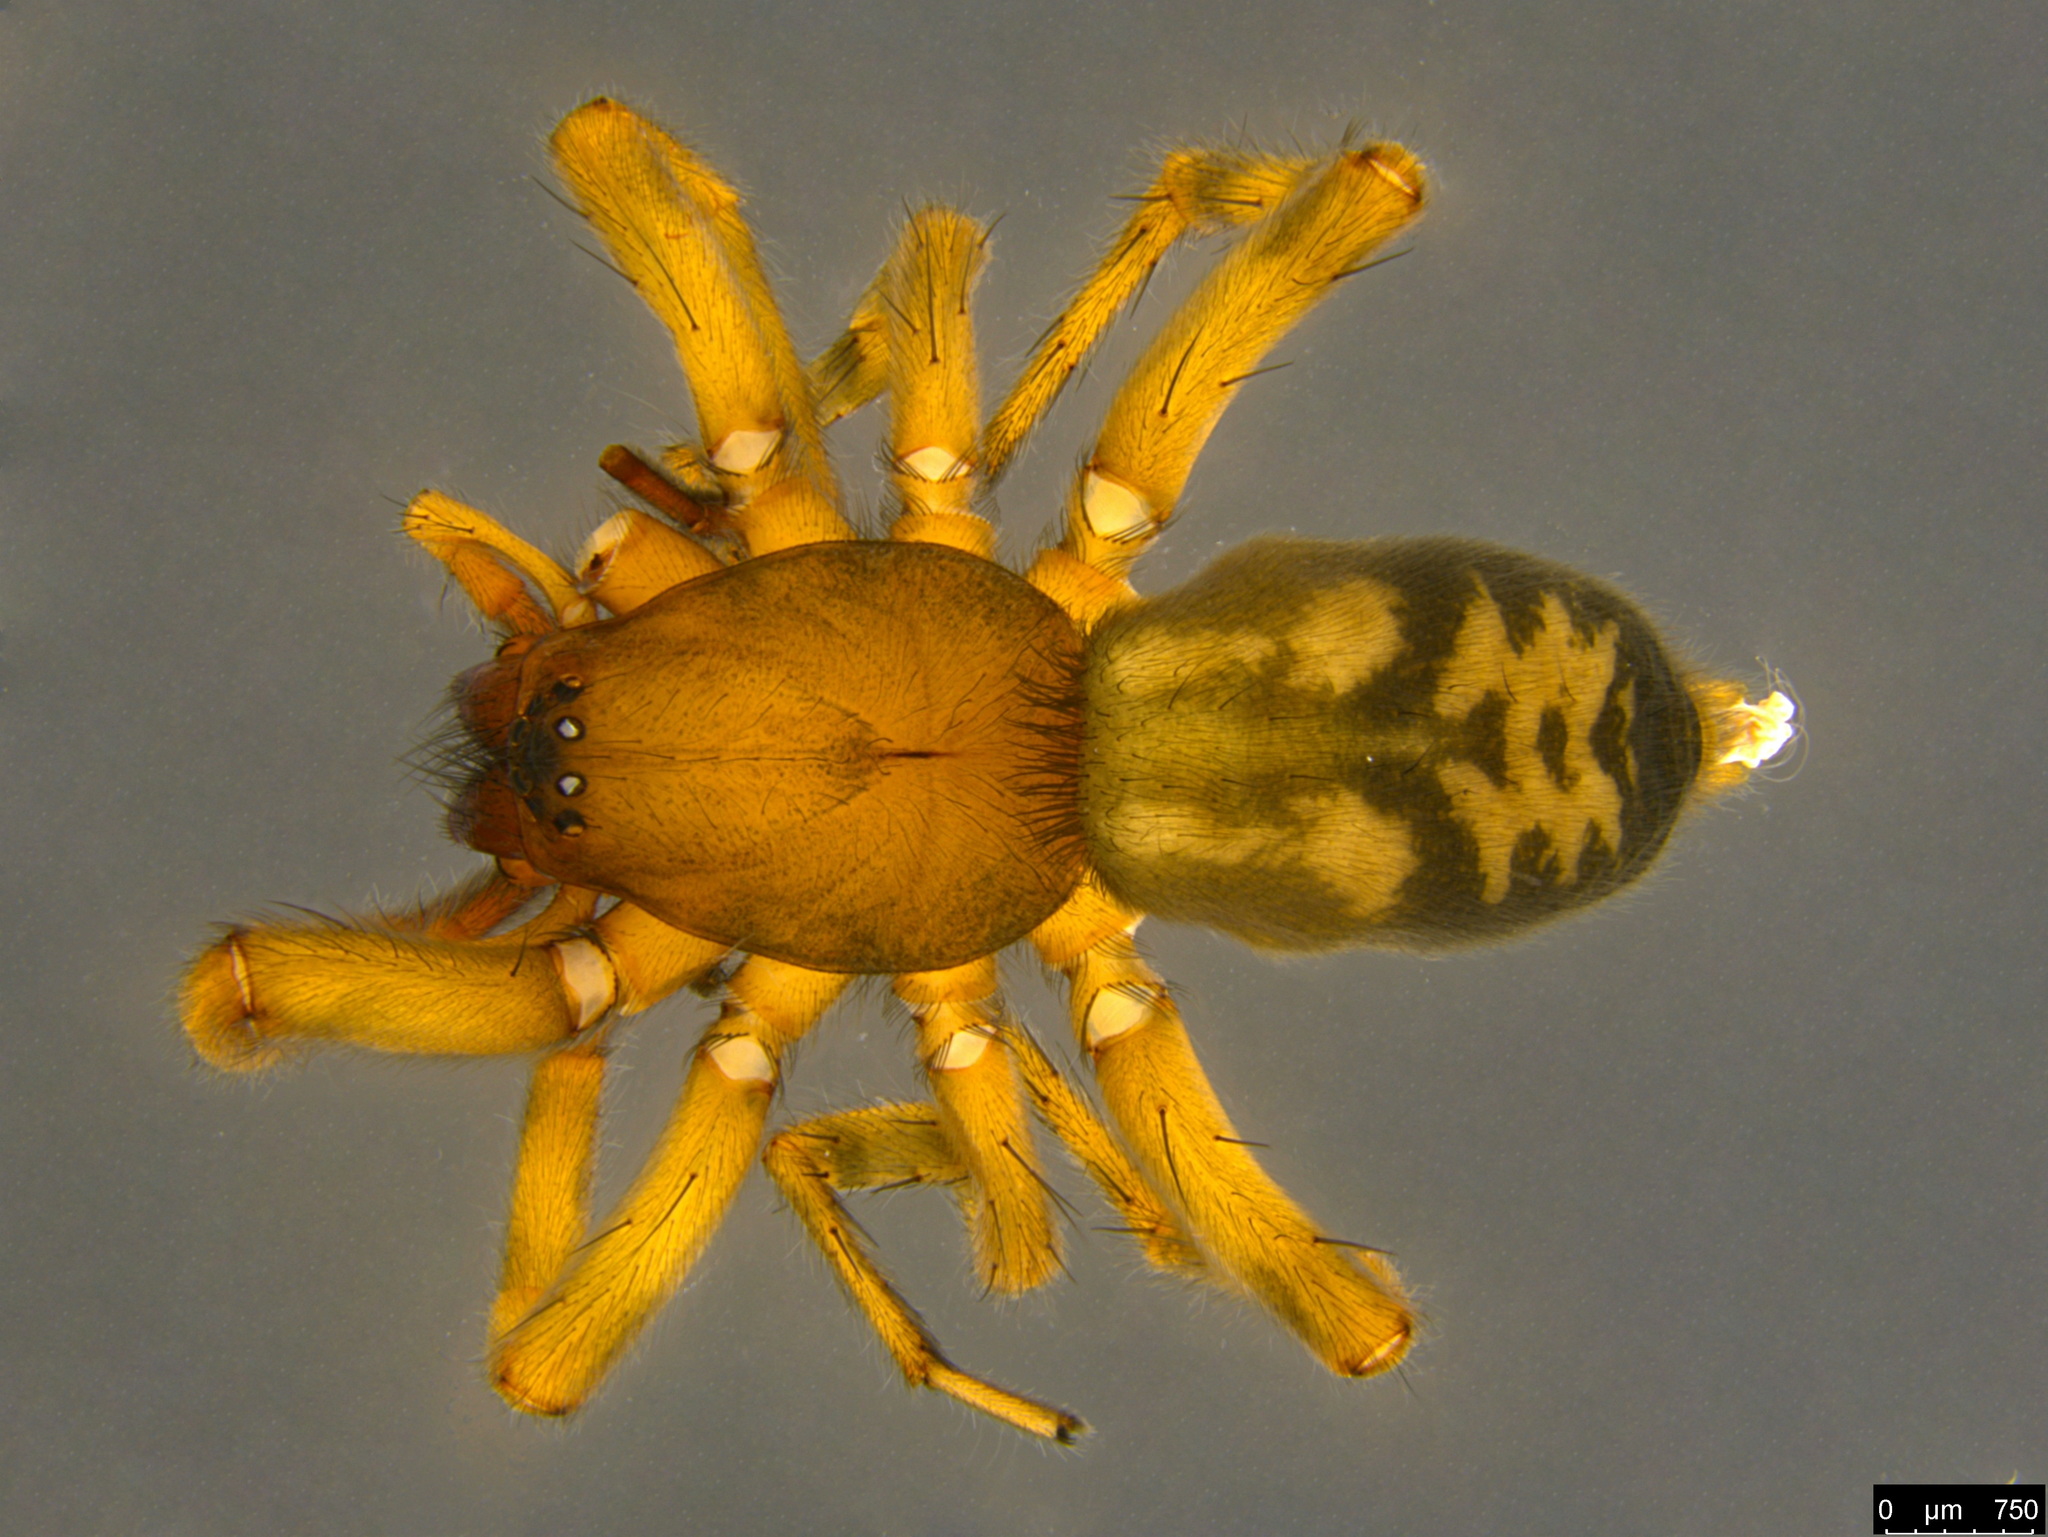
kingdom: Animalia
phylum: Arthropoda
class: Arachnida
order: Araneae
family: Gnaphosidae
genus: Intruda
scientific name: Intruda signata
